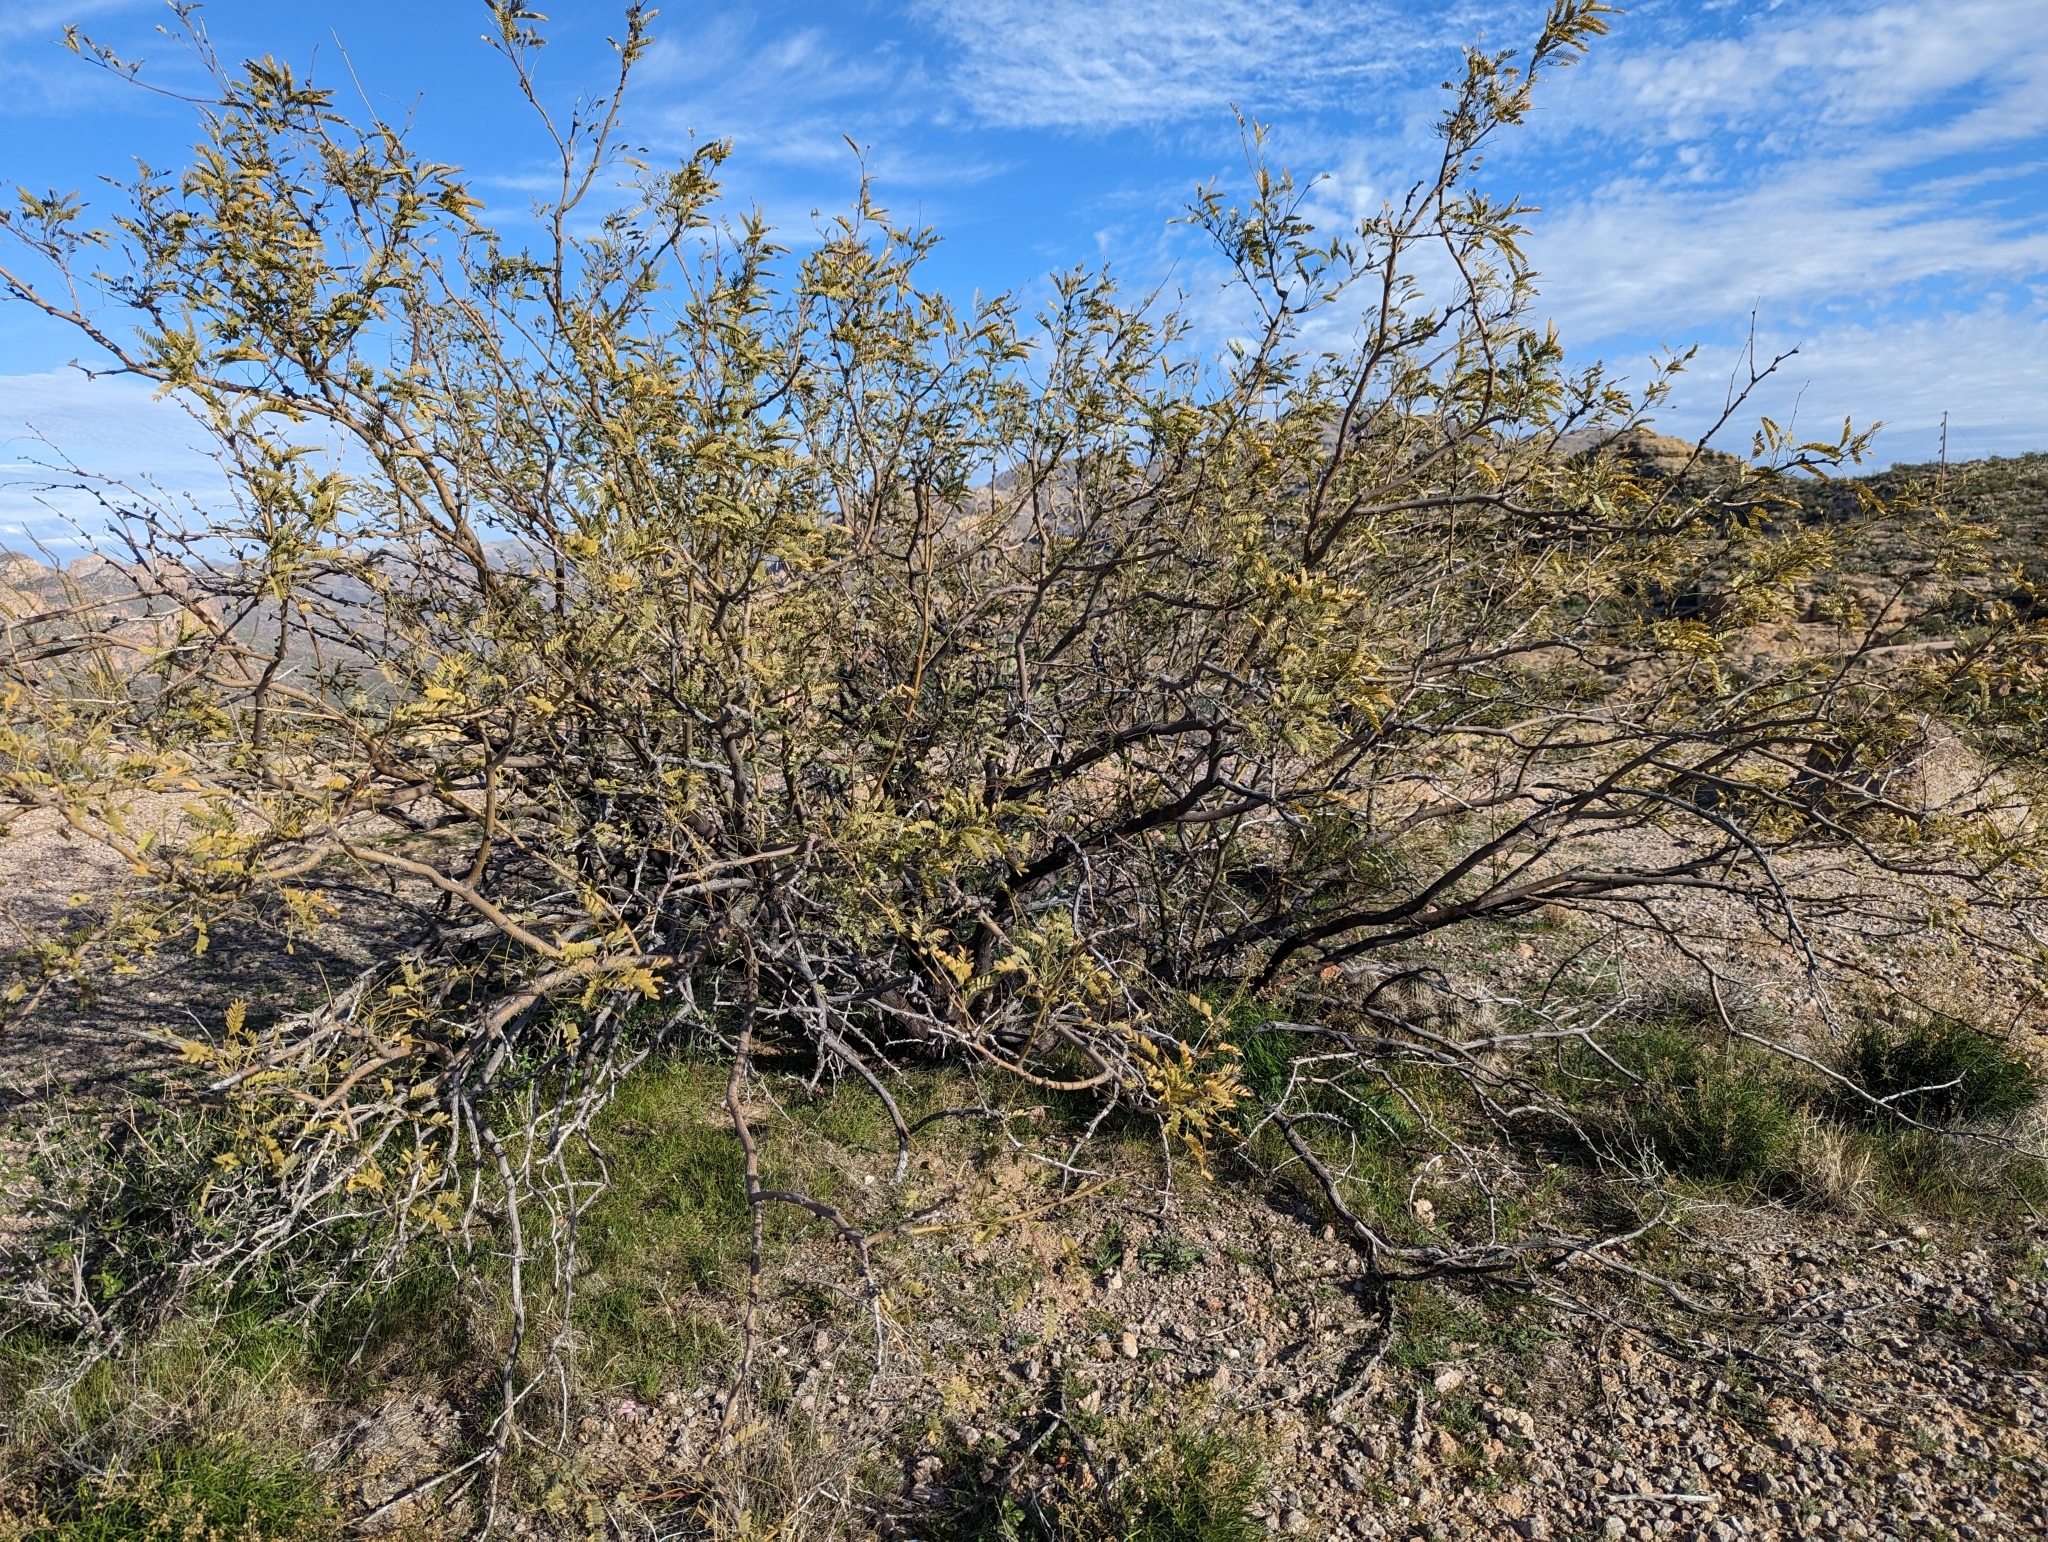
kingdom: Plantae
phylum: Tracheophyta
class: Magnoliopsida
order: Fabales
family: Fabaceae
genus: Prosopis
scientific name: Prosopis velutina
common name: Velvet mesquite
